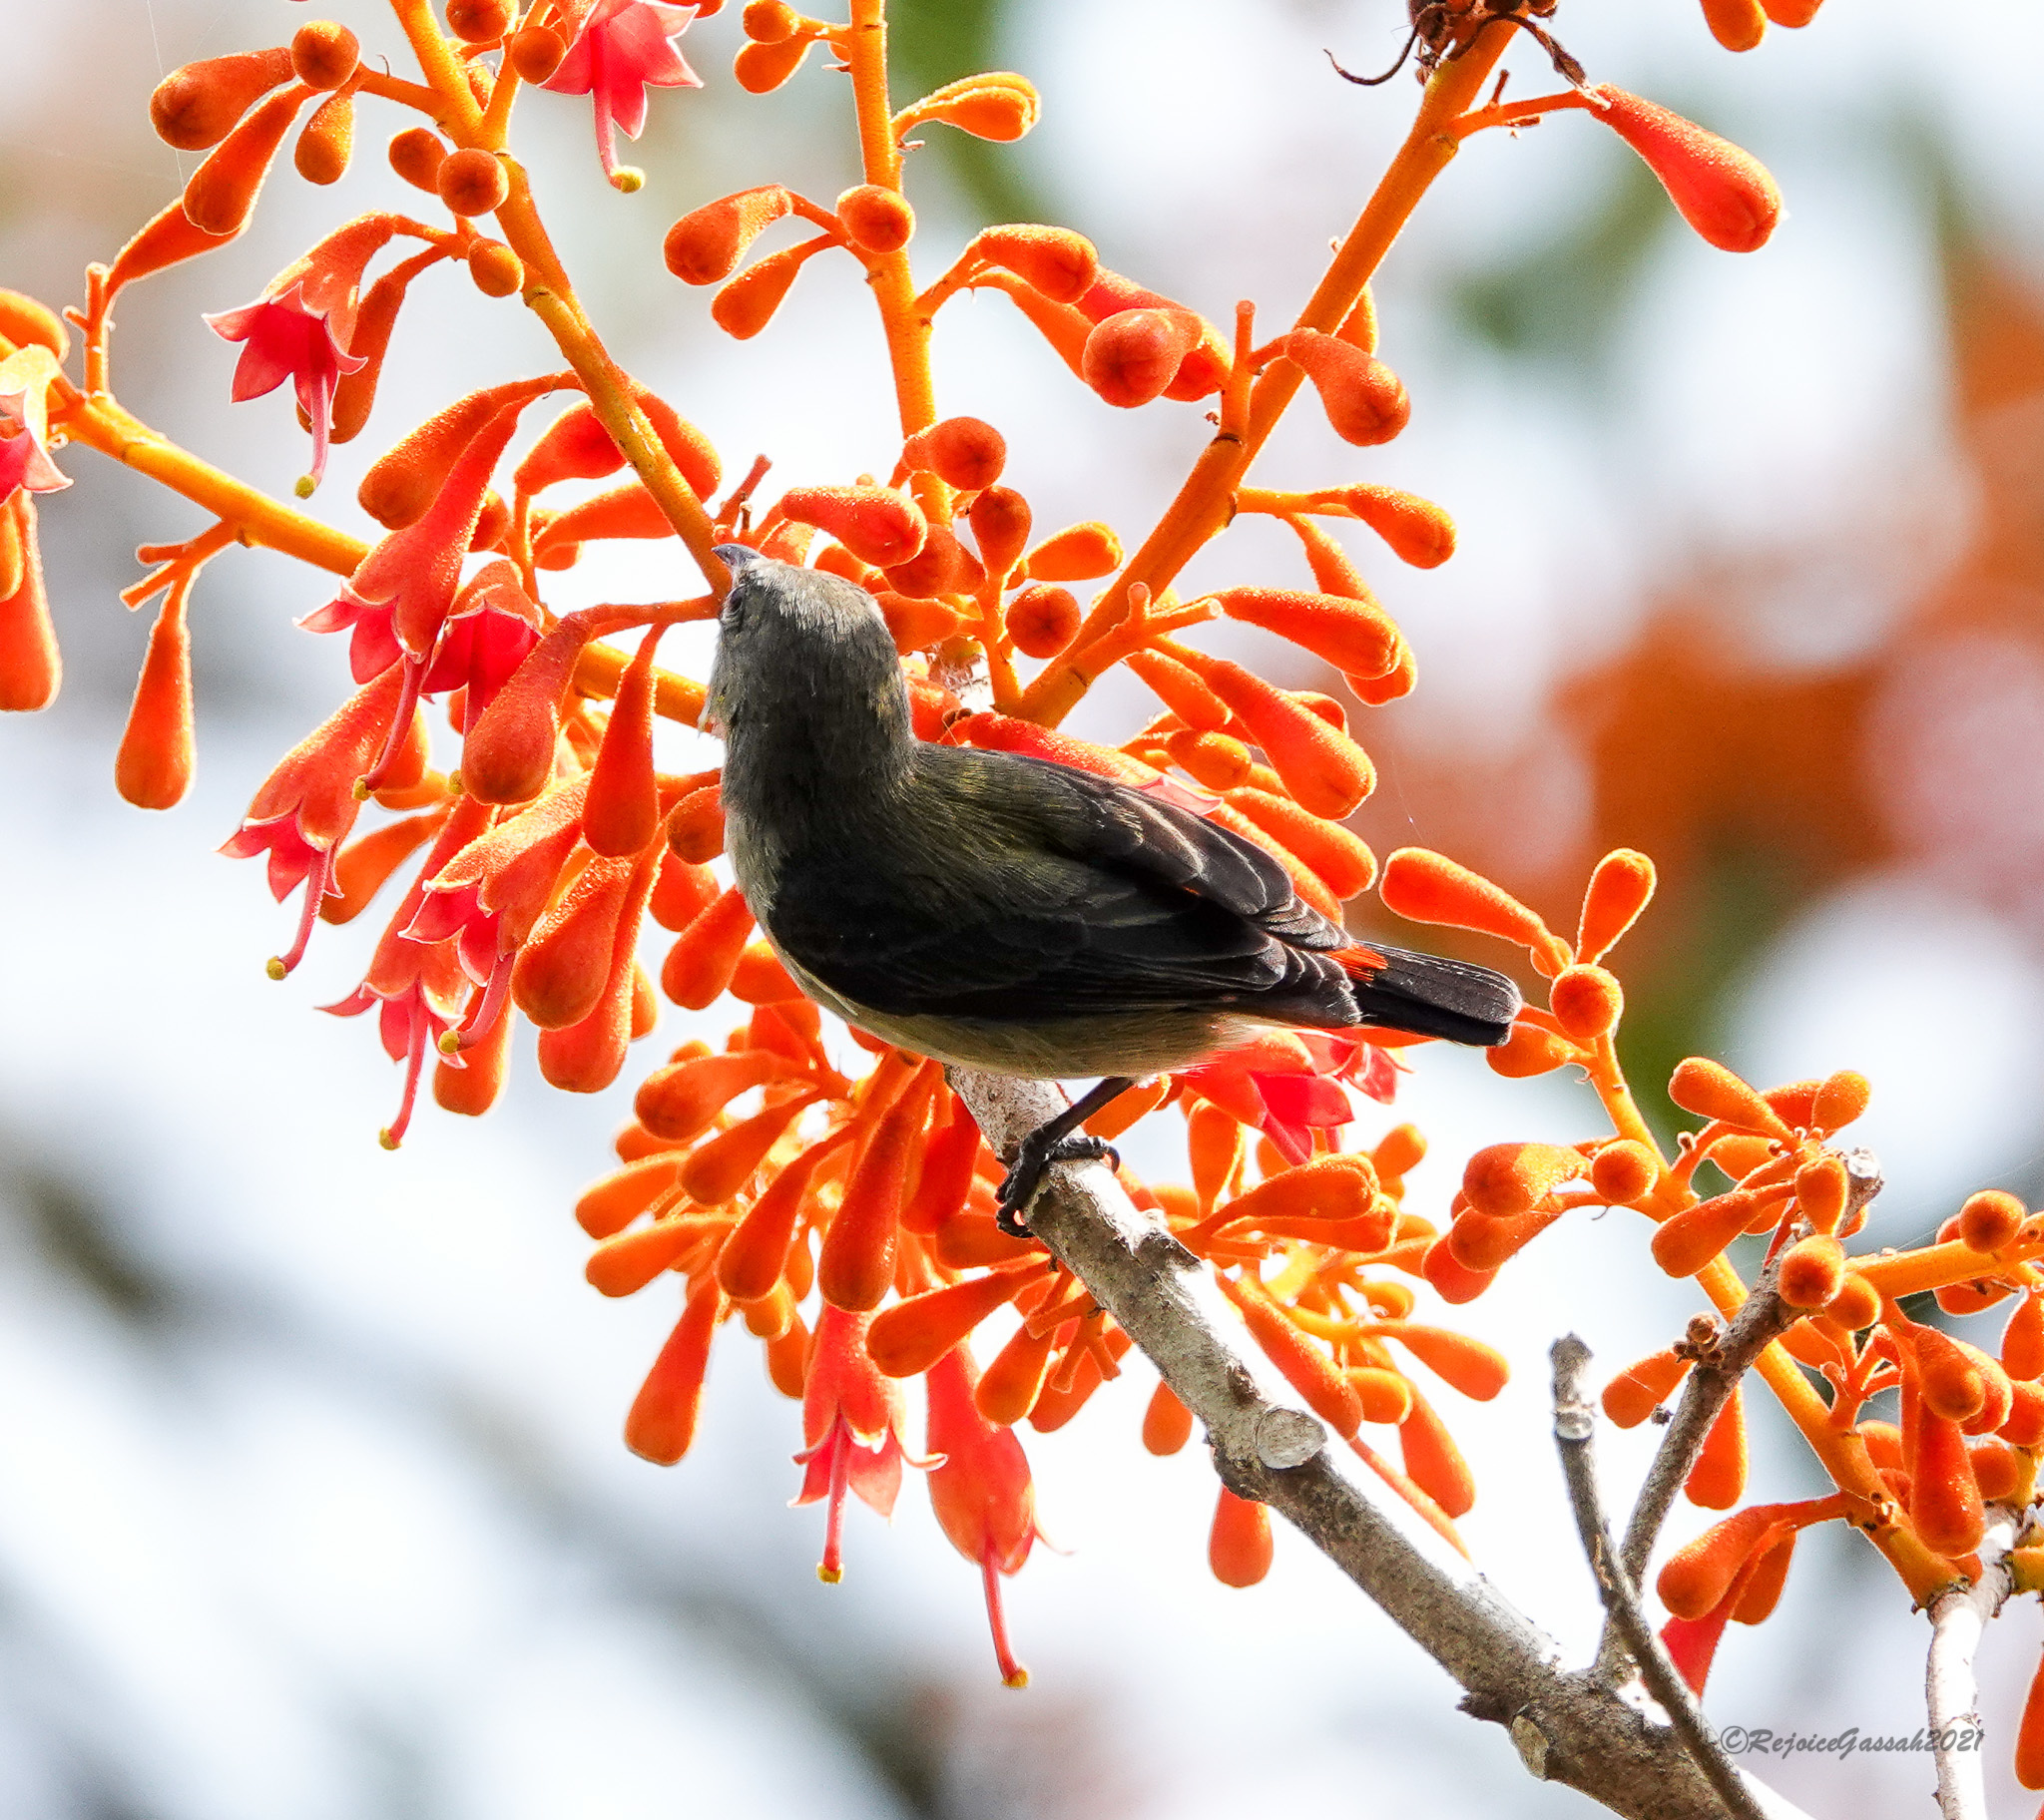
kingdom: Animalia
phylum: Chordata
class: Aves
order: Passeriformes
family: Dicaeidae
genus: Dicaeum
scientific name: Dicaeum cruentatum
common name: Scarlet-backed flowerpecker
